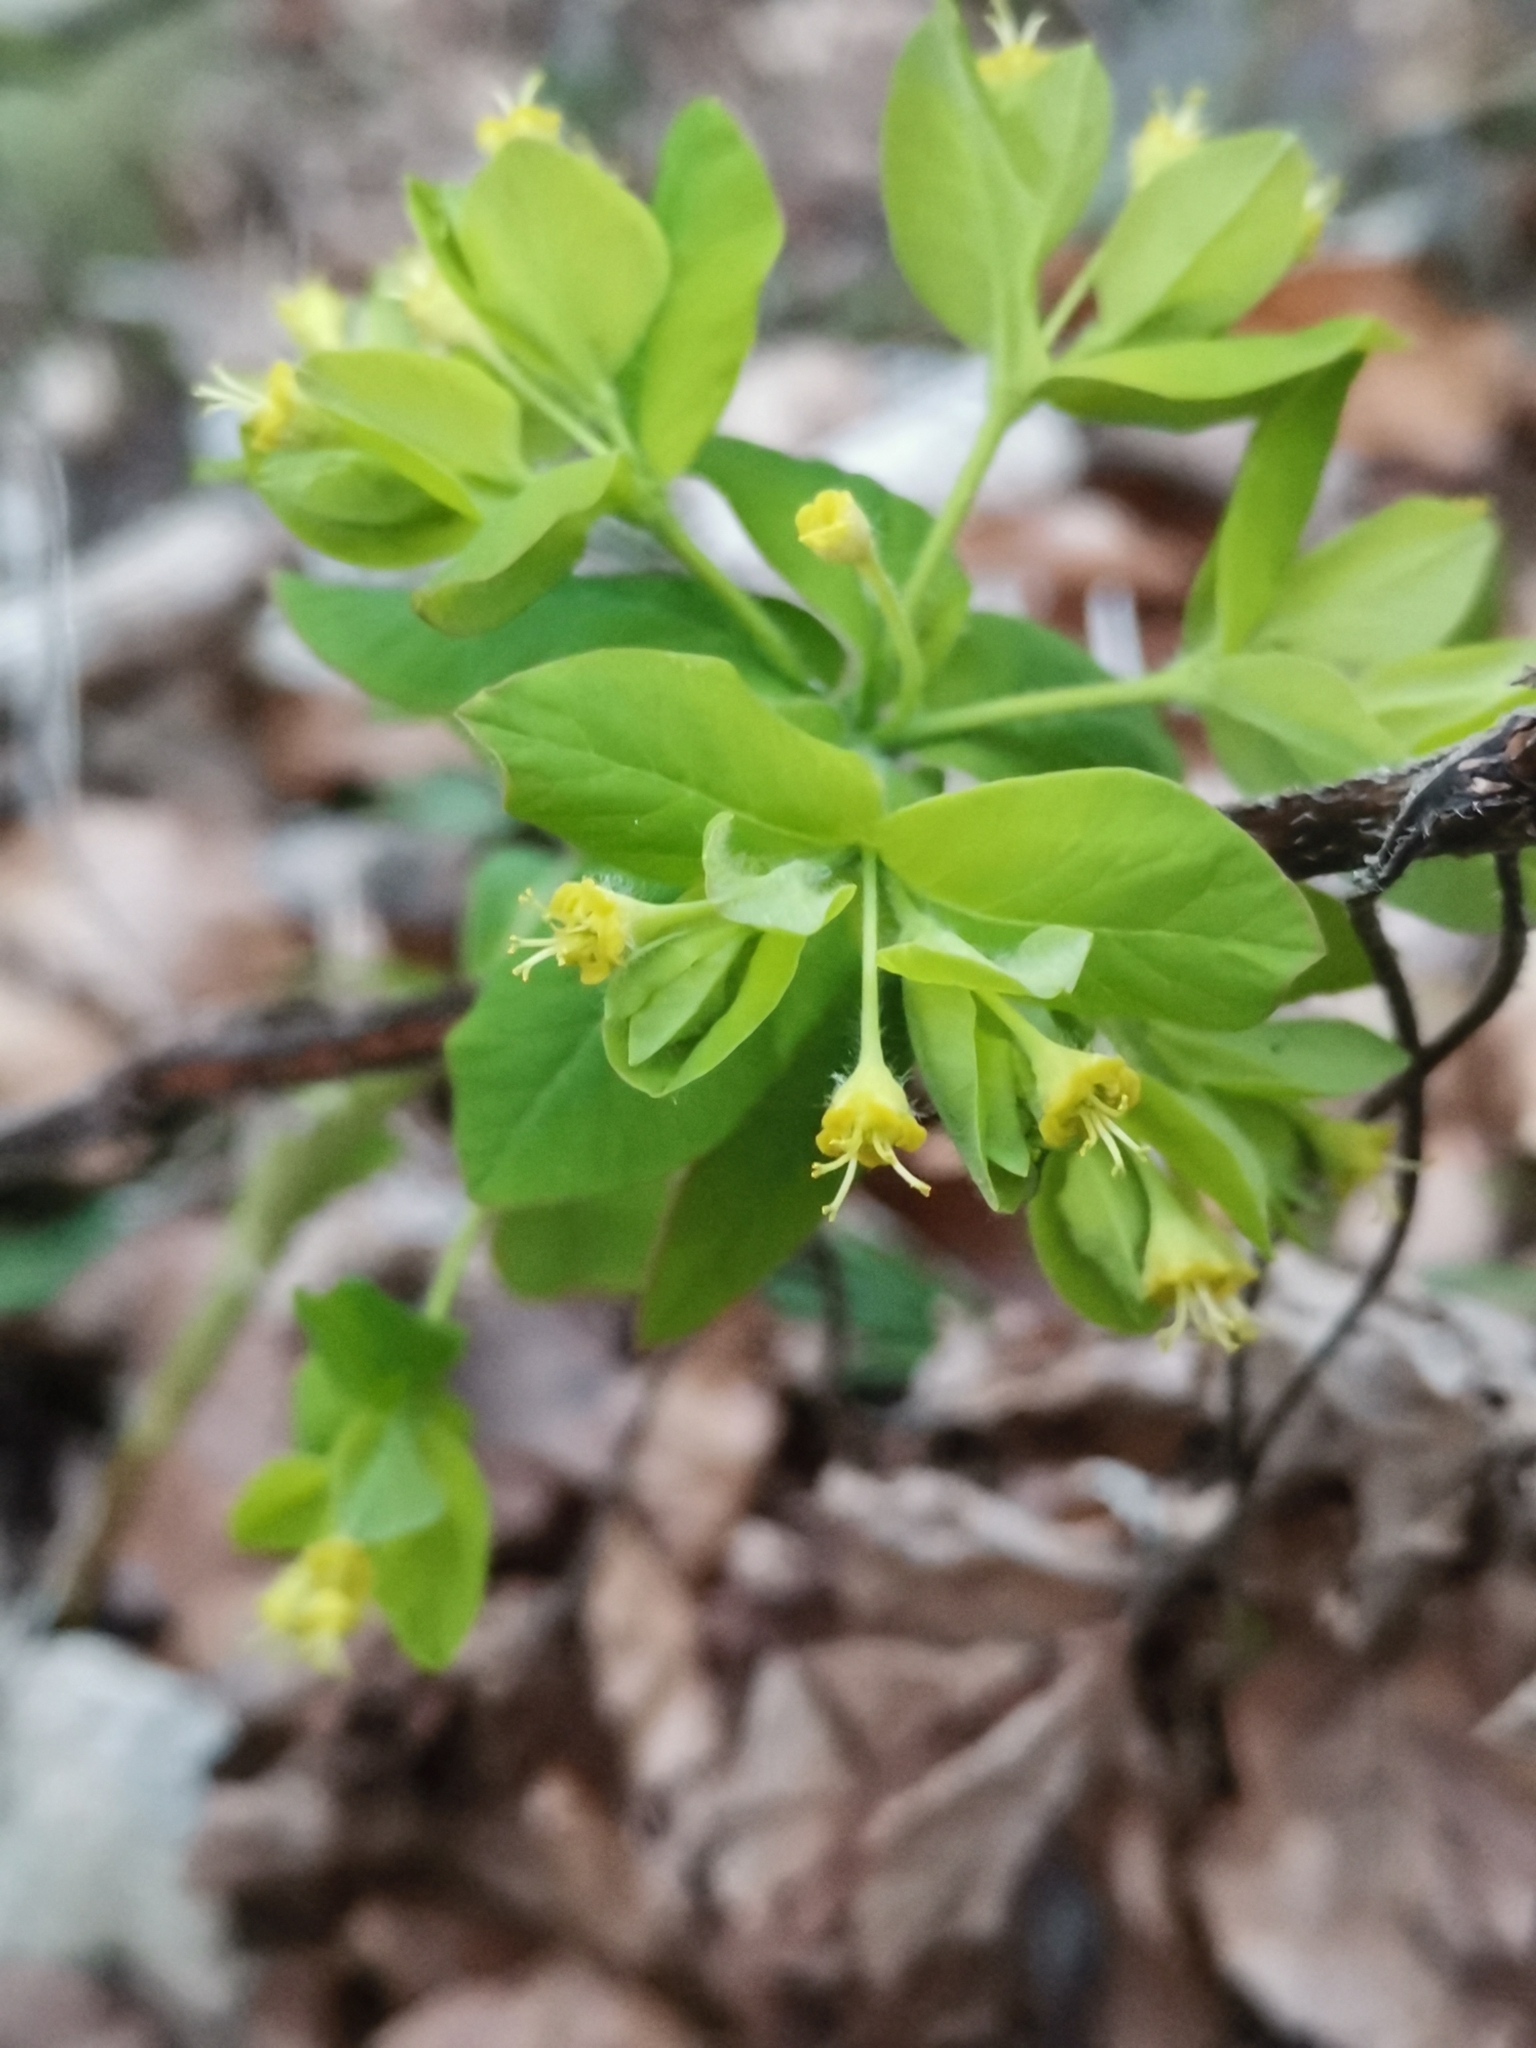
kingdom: Plantae
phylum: Tracheophyta
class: Magnoliopsida
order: Malpighiales
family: Euphorbiaceae
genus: Euphorbia
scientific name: Euphorbia carniolica
